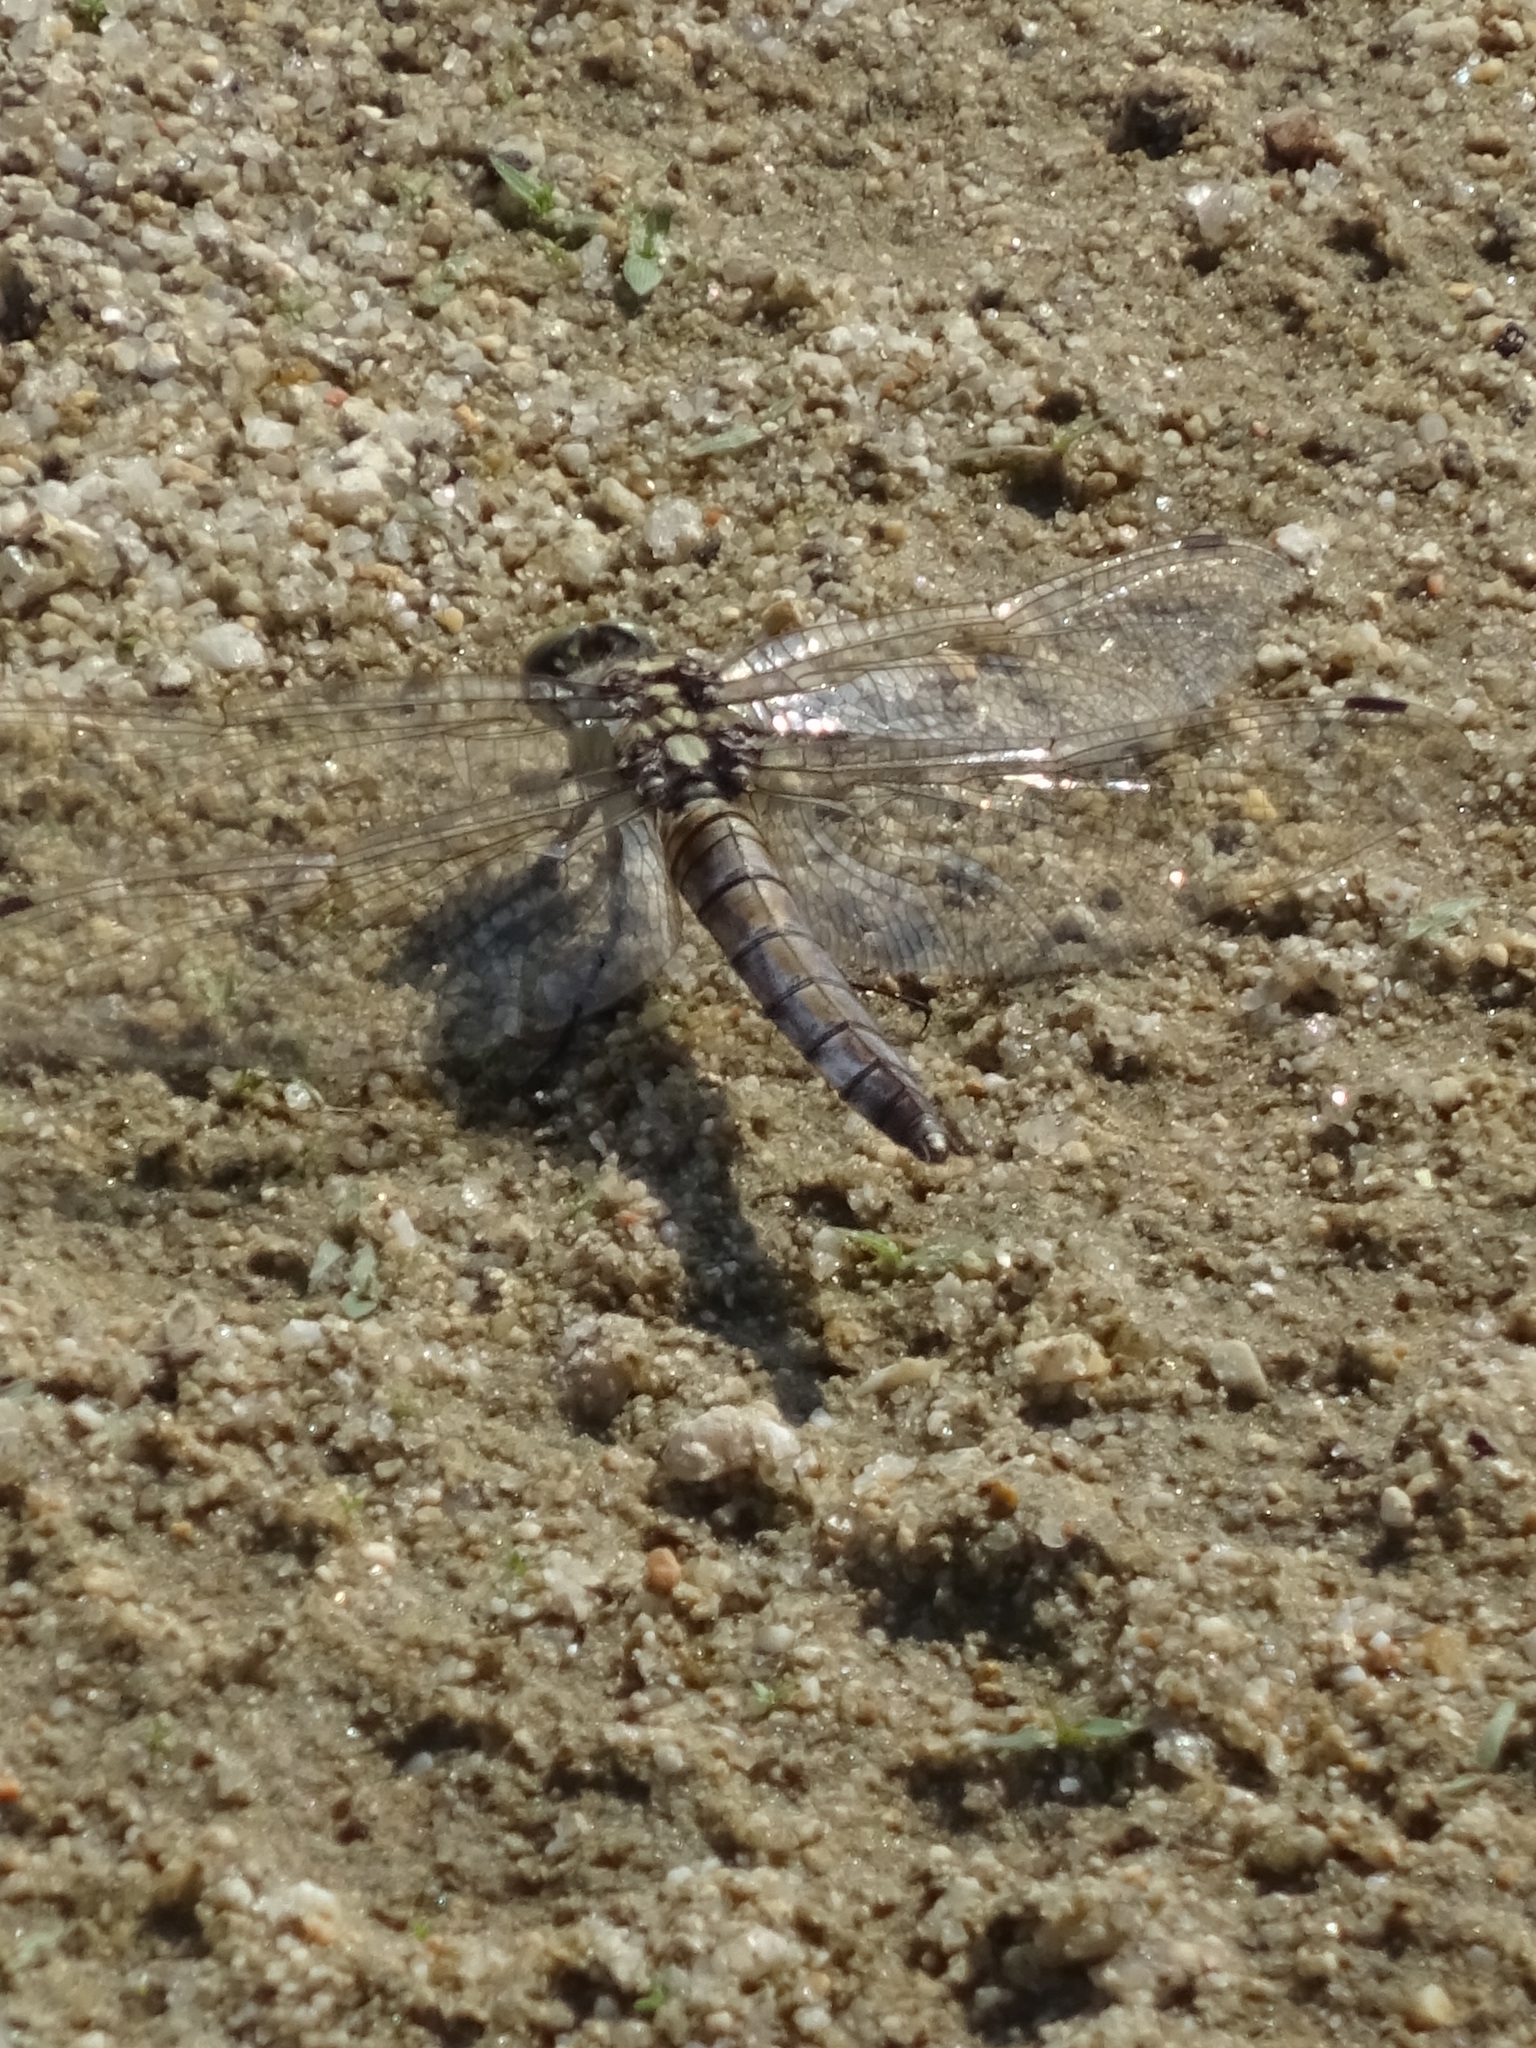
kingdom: Animalia
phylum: Arthropoda
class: Insecta
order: Odonata
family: Libellulidae
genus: Orthetrum
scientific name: Orthetrum cancellatum
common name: Black-tailed skimmer
